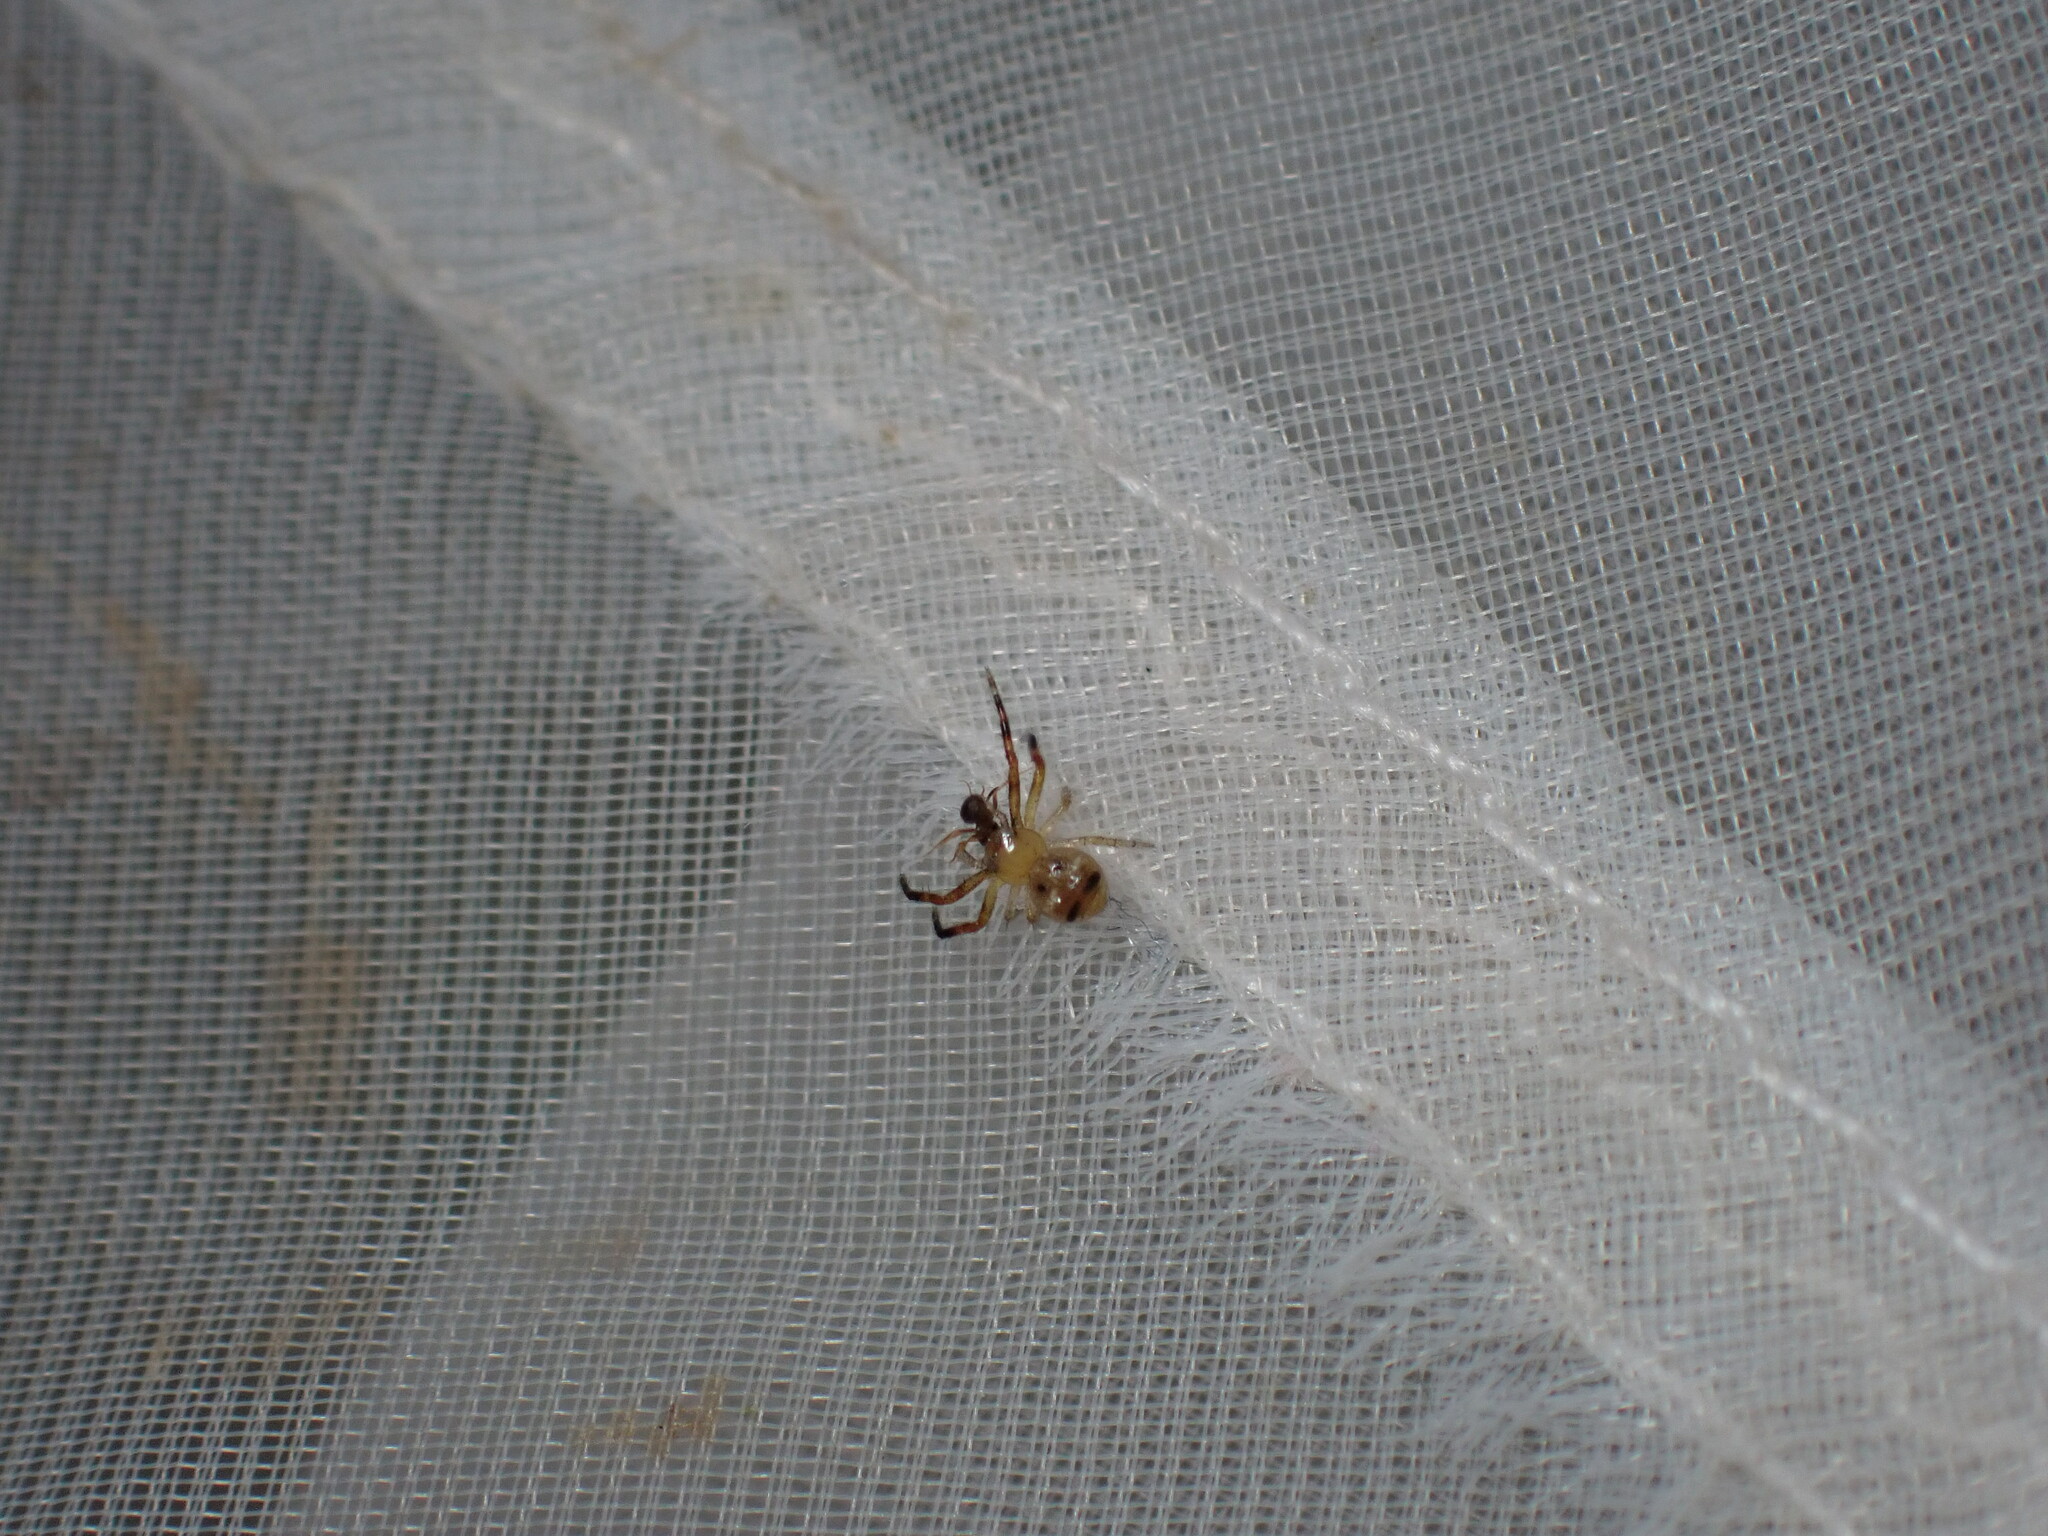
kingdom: Animalia
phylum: Arthropoda
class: Arachnida
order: Araneae
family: Thomisidae
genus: Synema
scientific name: Synema globosum
